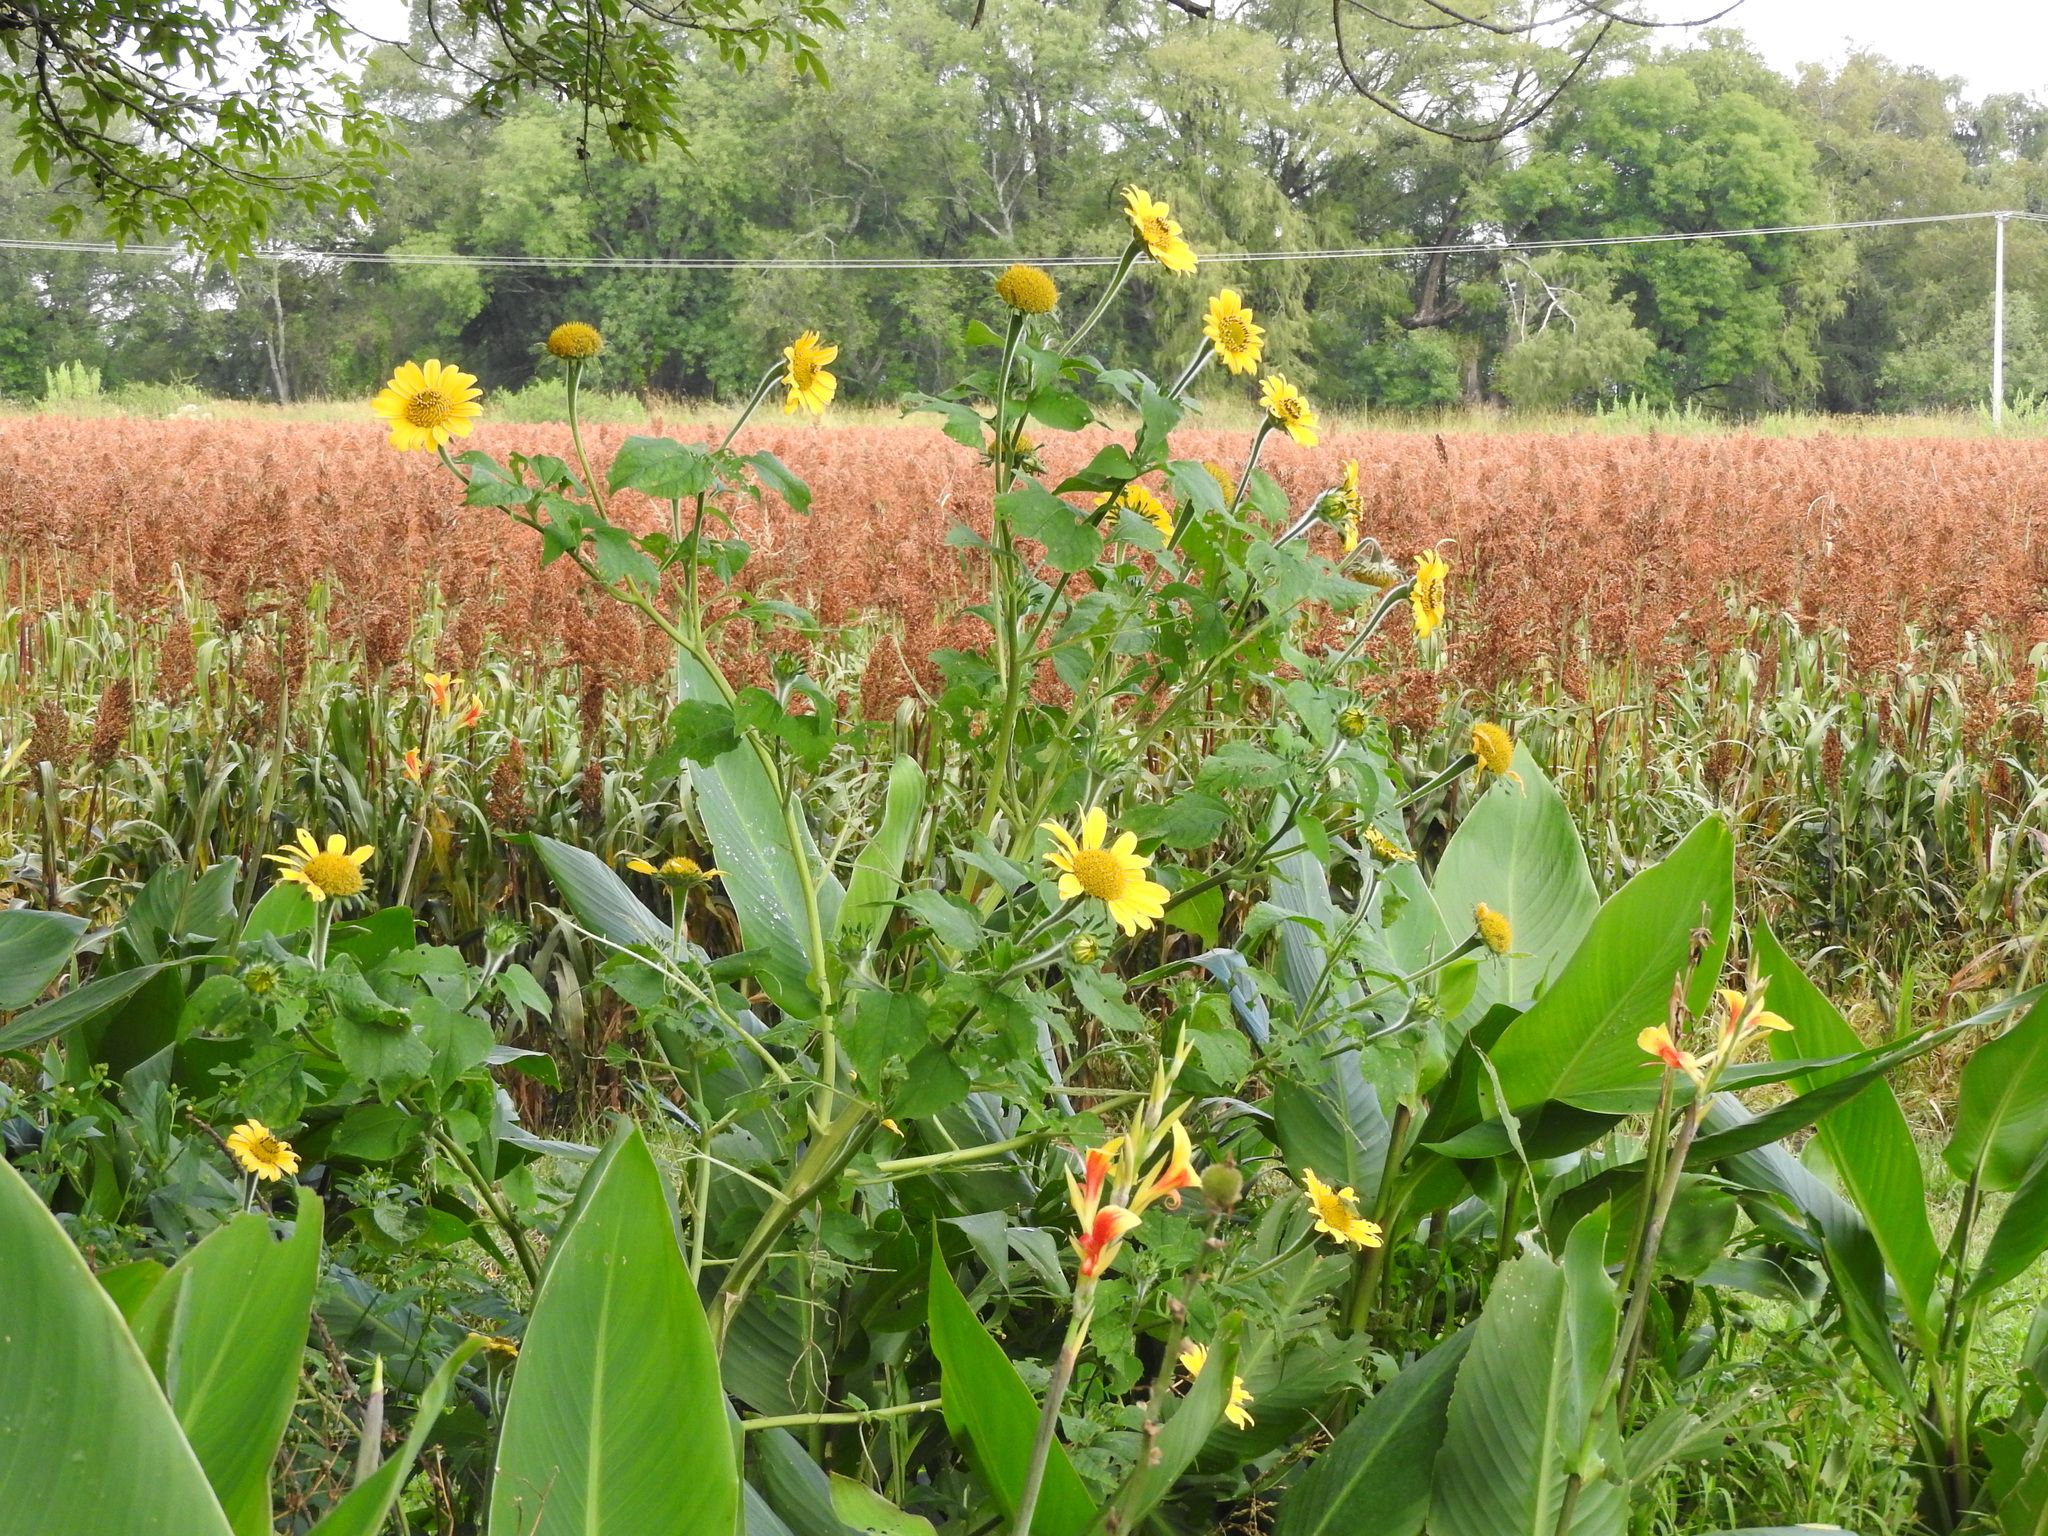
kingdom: Plantae
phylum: Tracheophyta
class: Magnoliopsida
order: Asterales
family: Asteraceae
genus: Tithonia
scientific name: Tithonia tubaeformis
